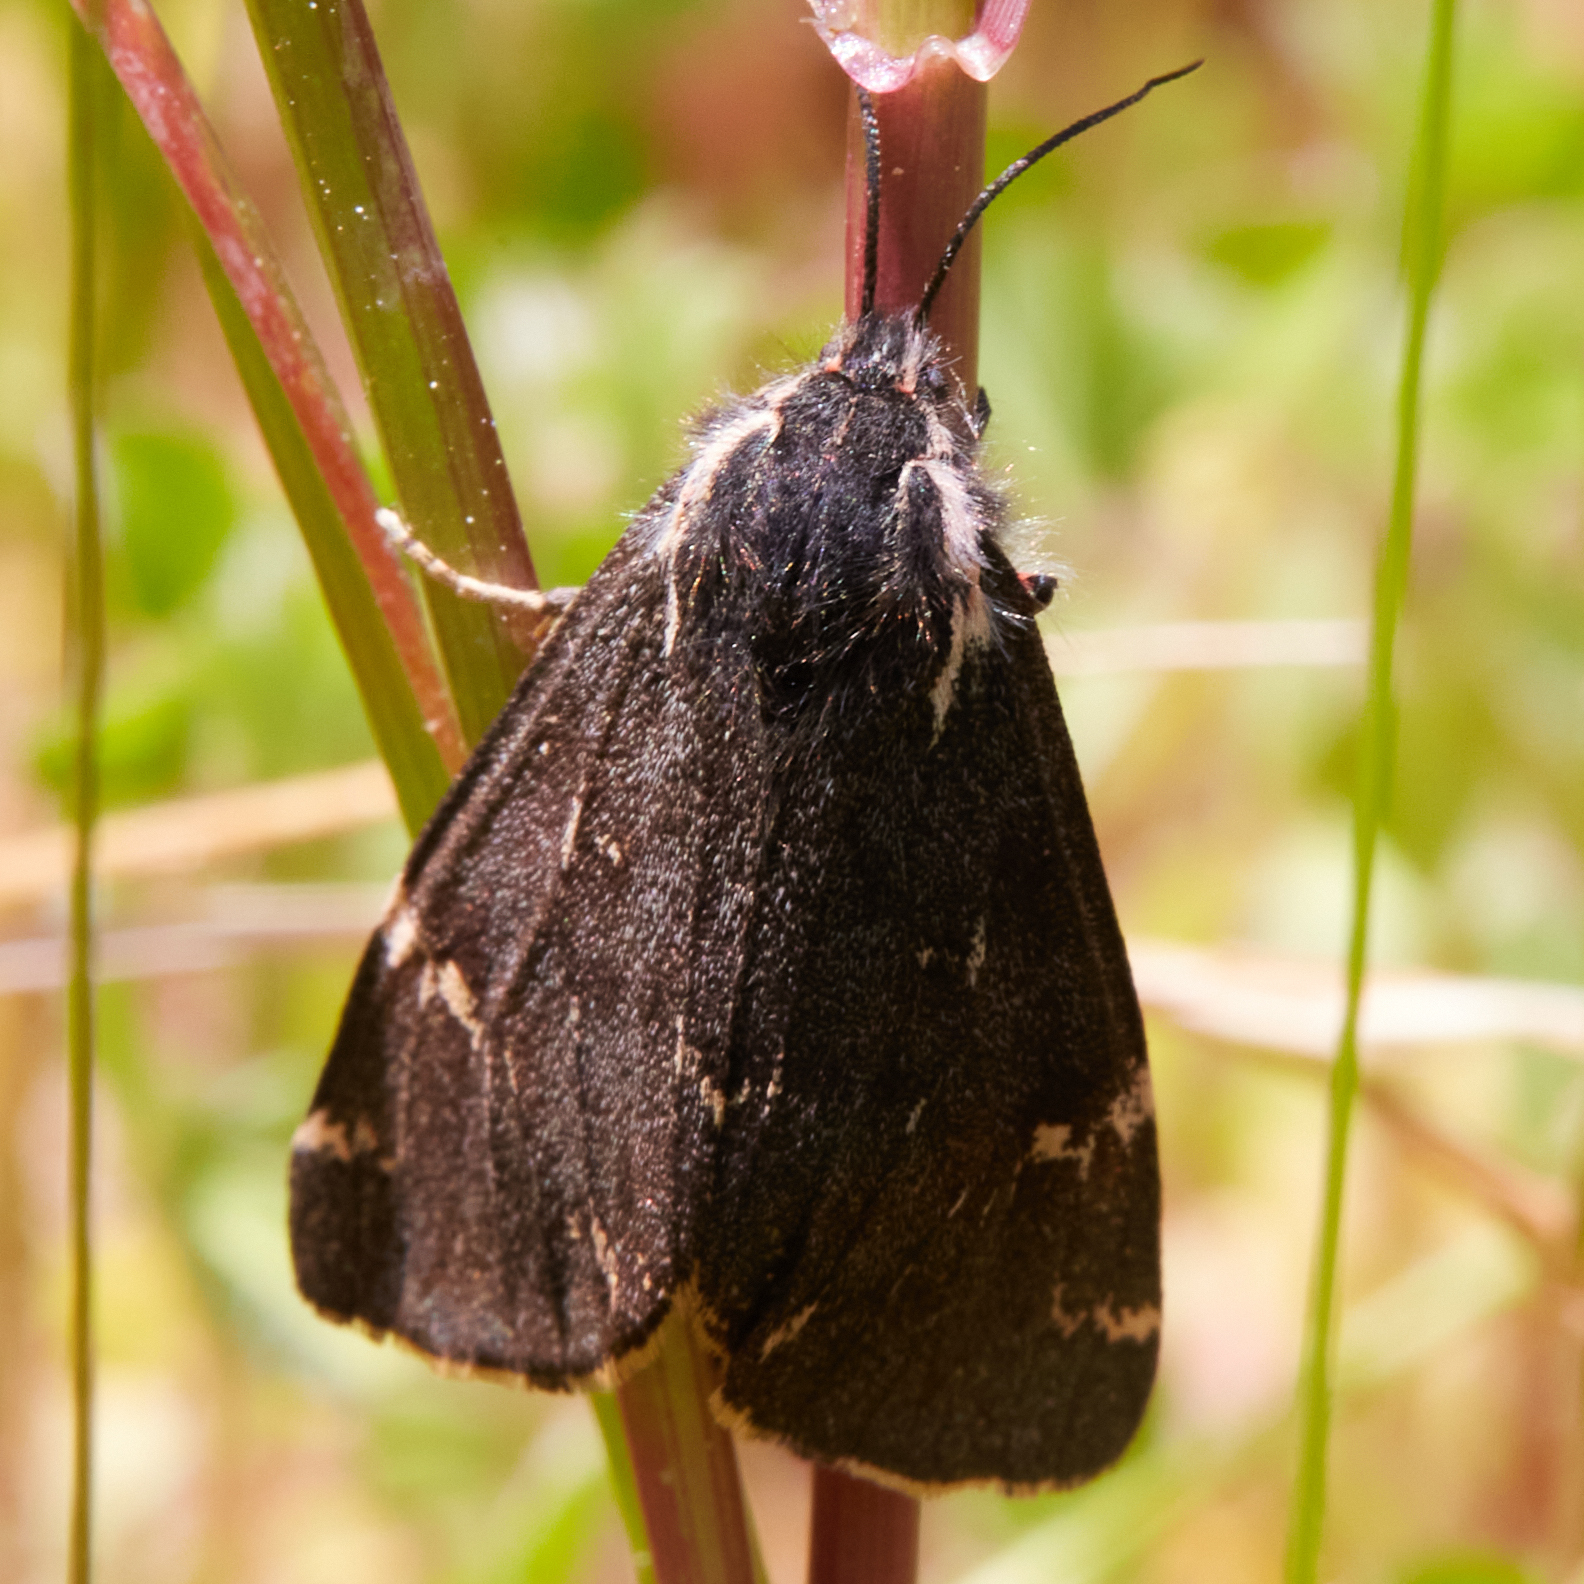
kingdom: Animalia
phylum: Arthropoda
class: Insecta
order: Lepidoptera
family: Erebidae
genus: Leptarctia
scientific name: Leptarctia californiae
